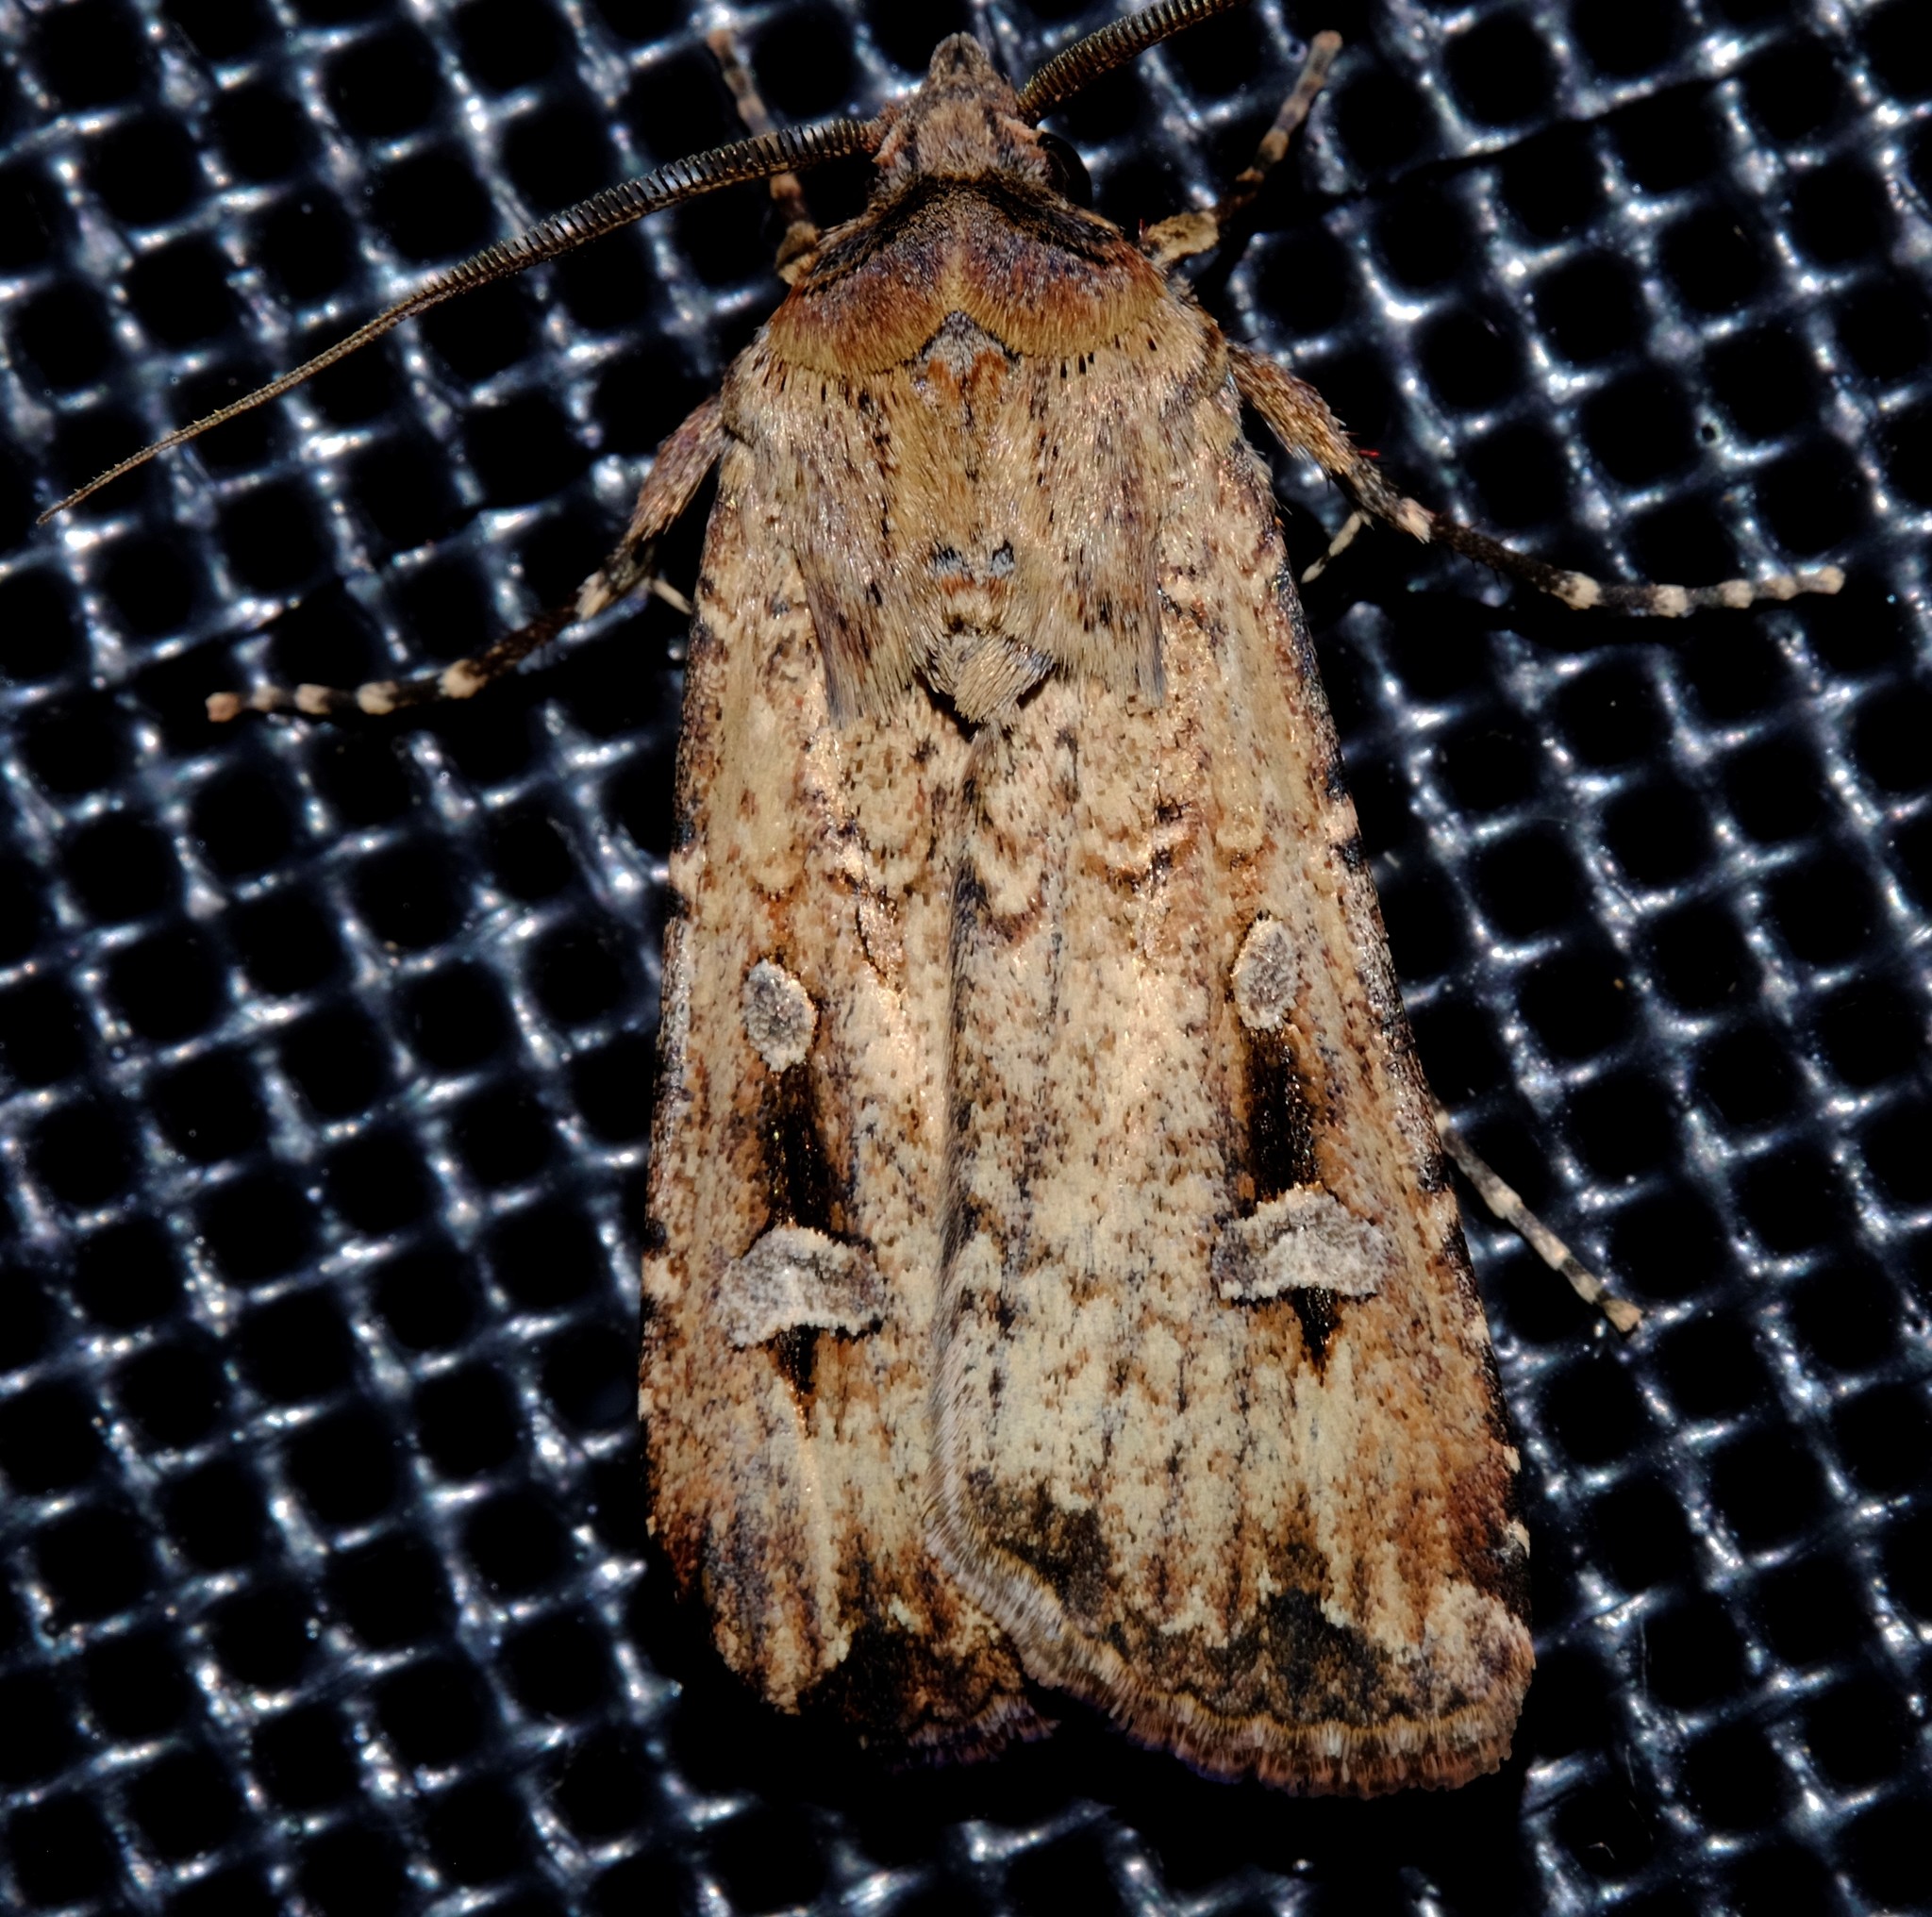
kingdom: Animalia
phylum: Arthropoda
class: Insecta
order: Lepidoptera
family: Noctuidae
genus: Agrotis
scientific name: Agrotis infusa
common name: Bogong moth
